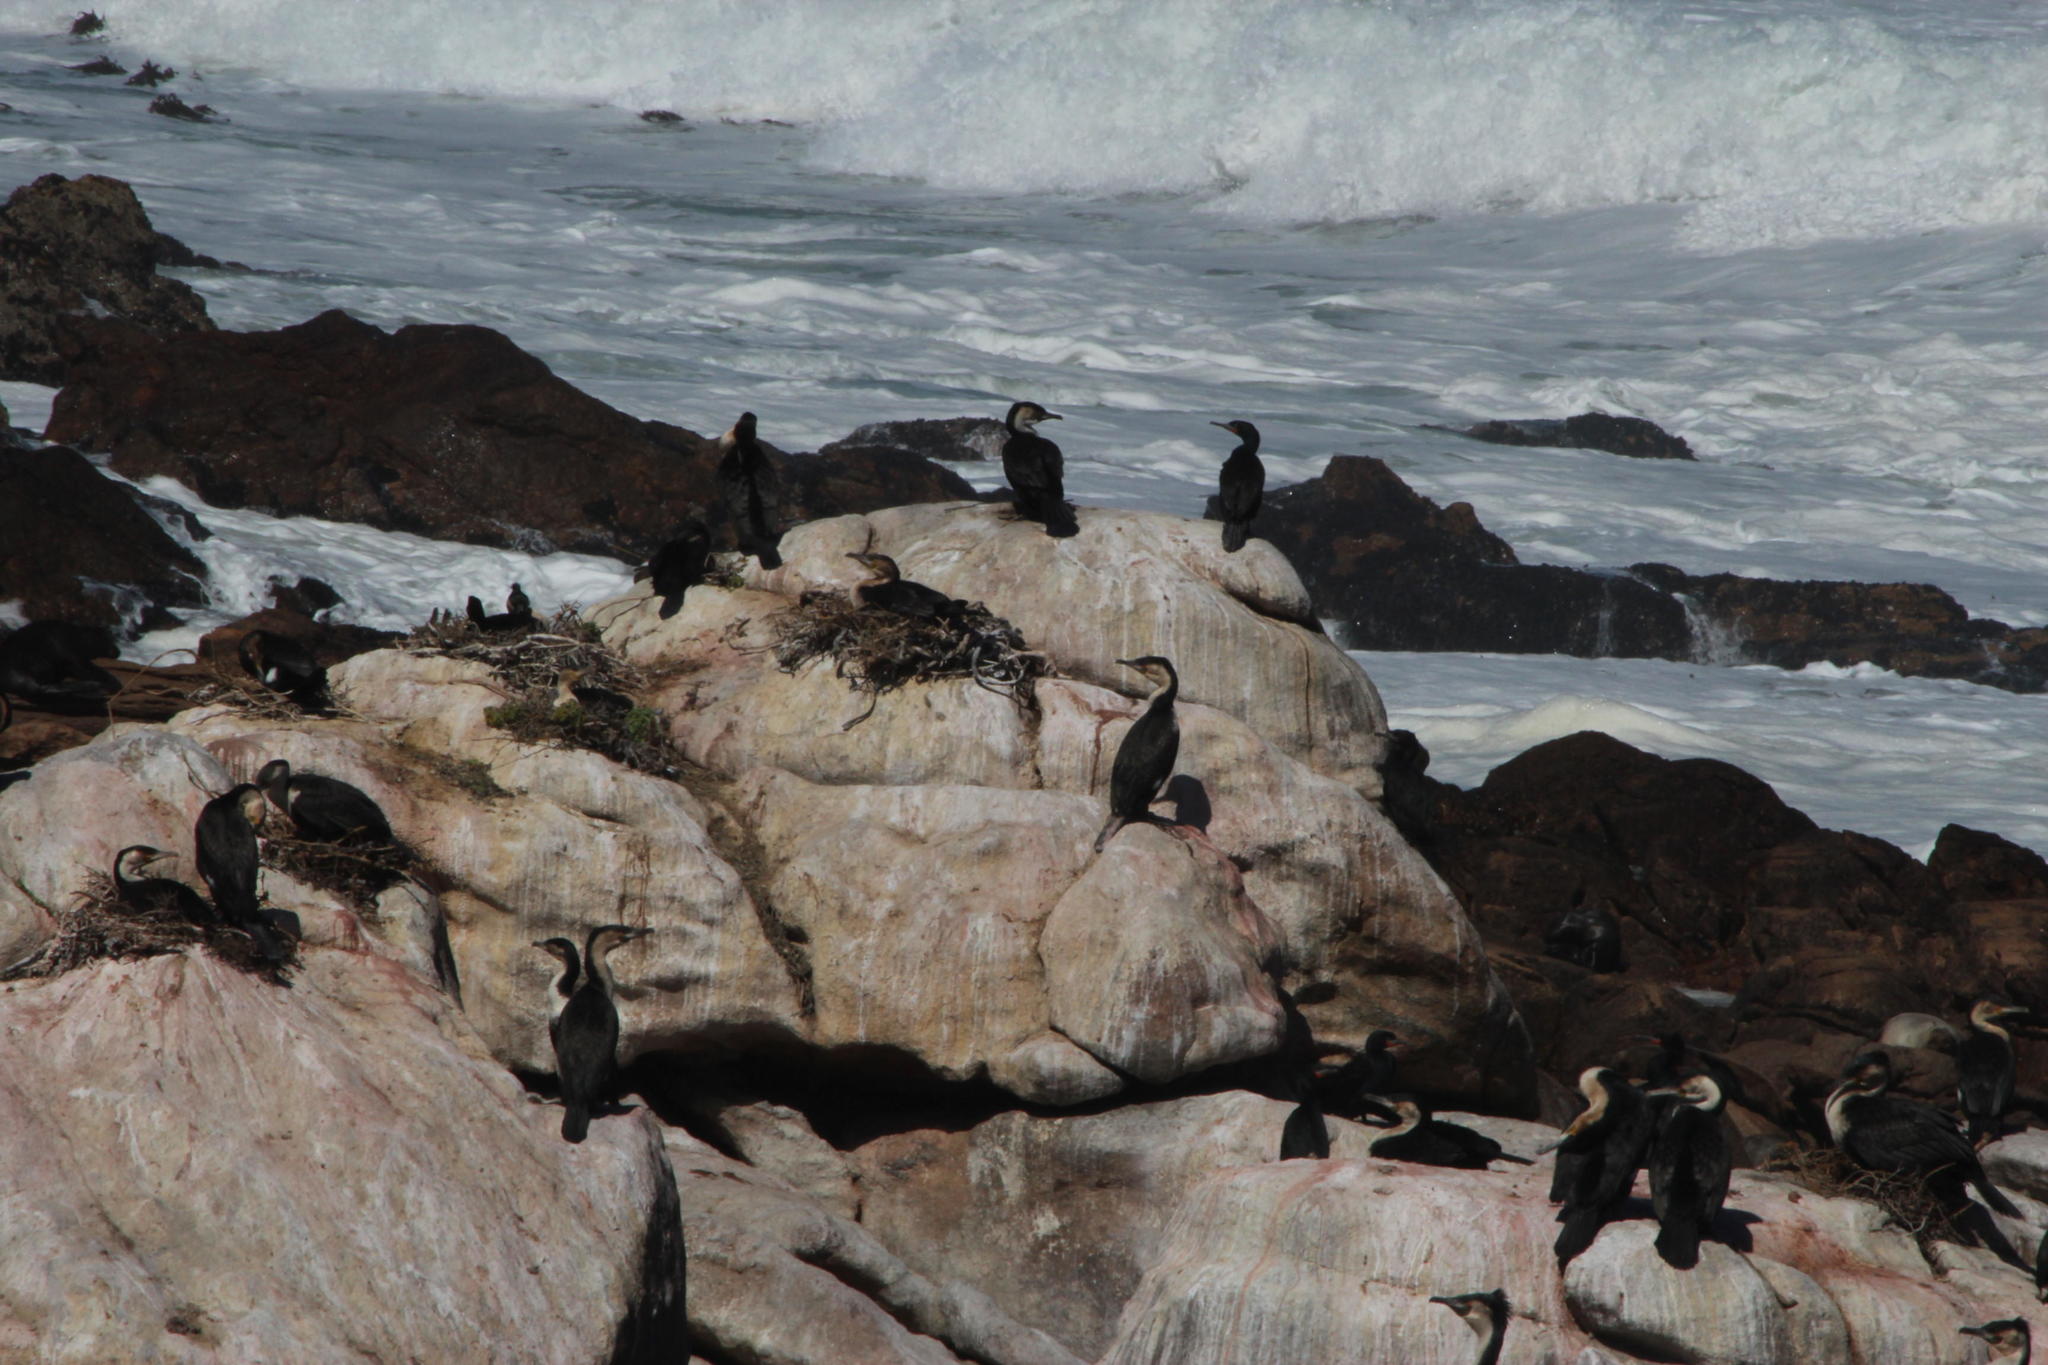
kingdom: Animalia
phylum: Chordata
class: Aves
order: Suliformes
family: Phalacrocoracidae
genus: Phalacrocorax
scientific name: Phalacrocorax carbo
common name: Great cormorant
